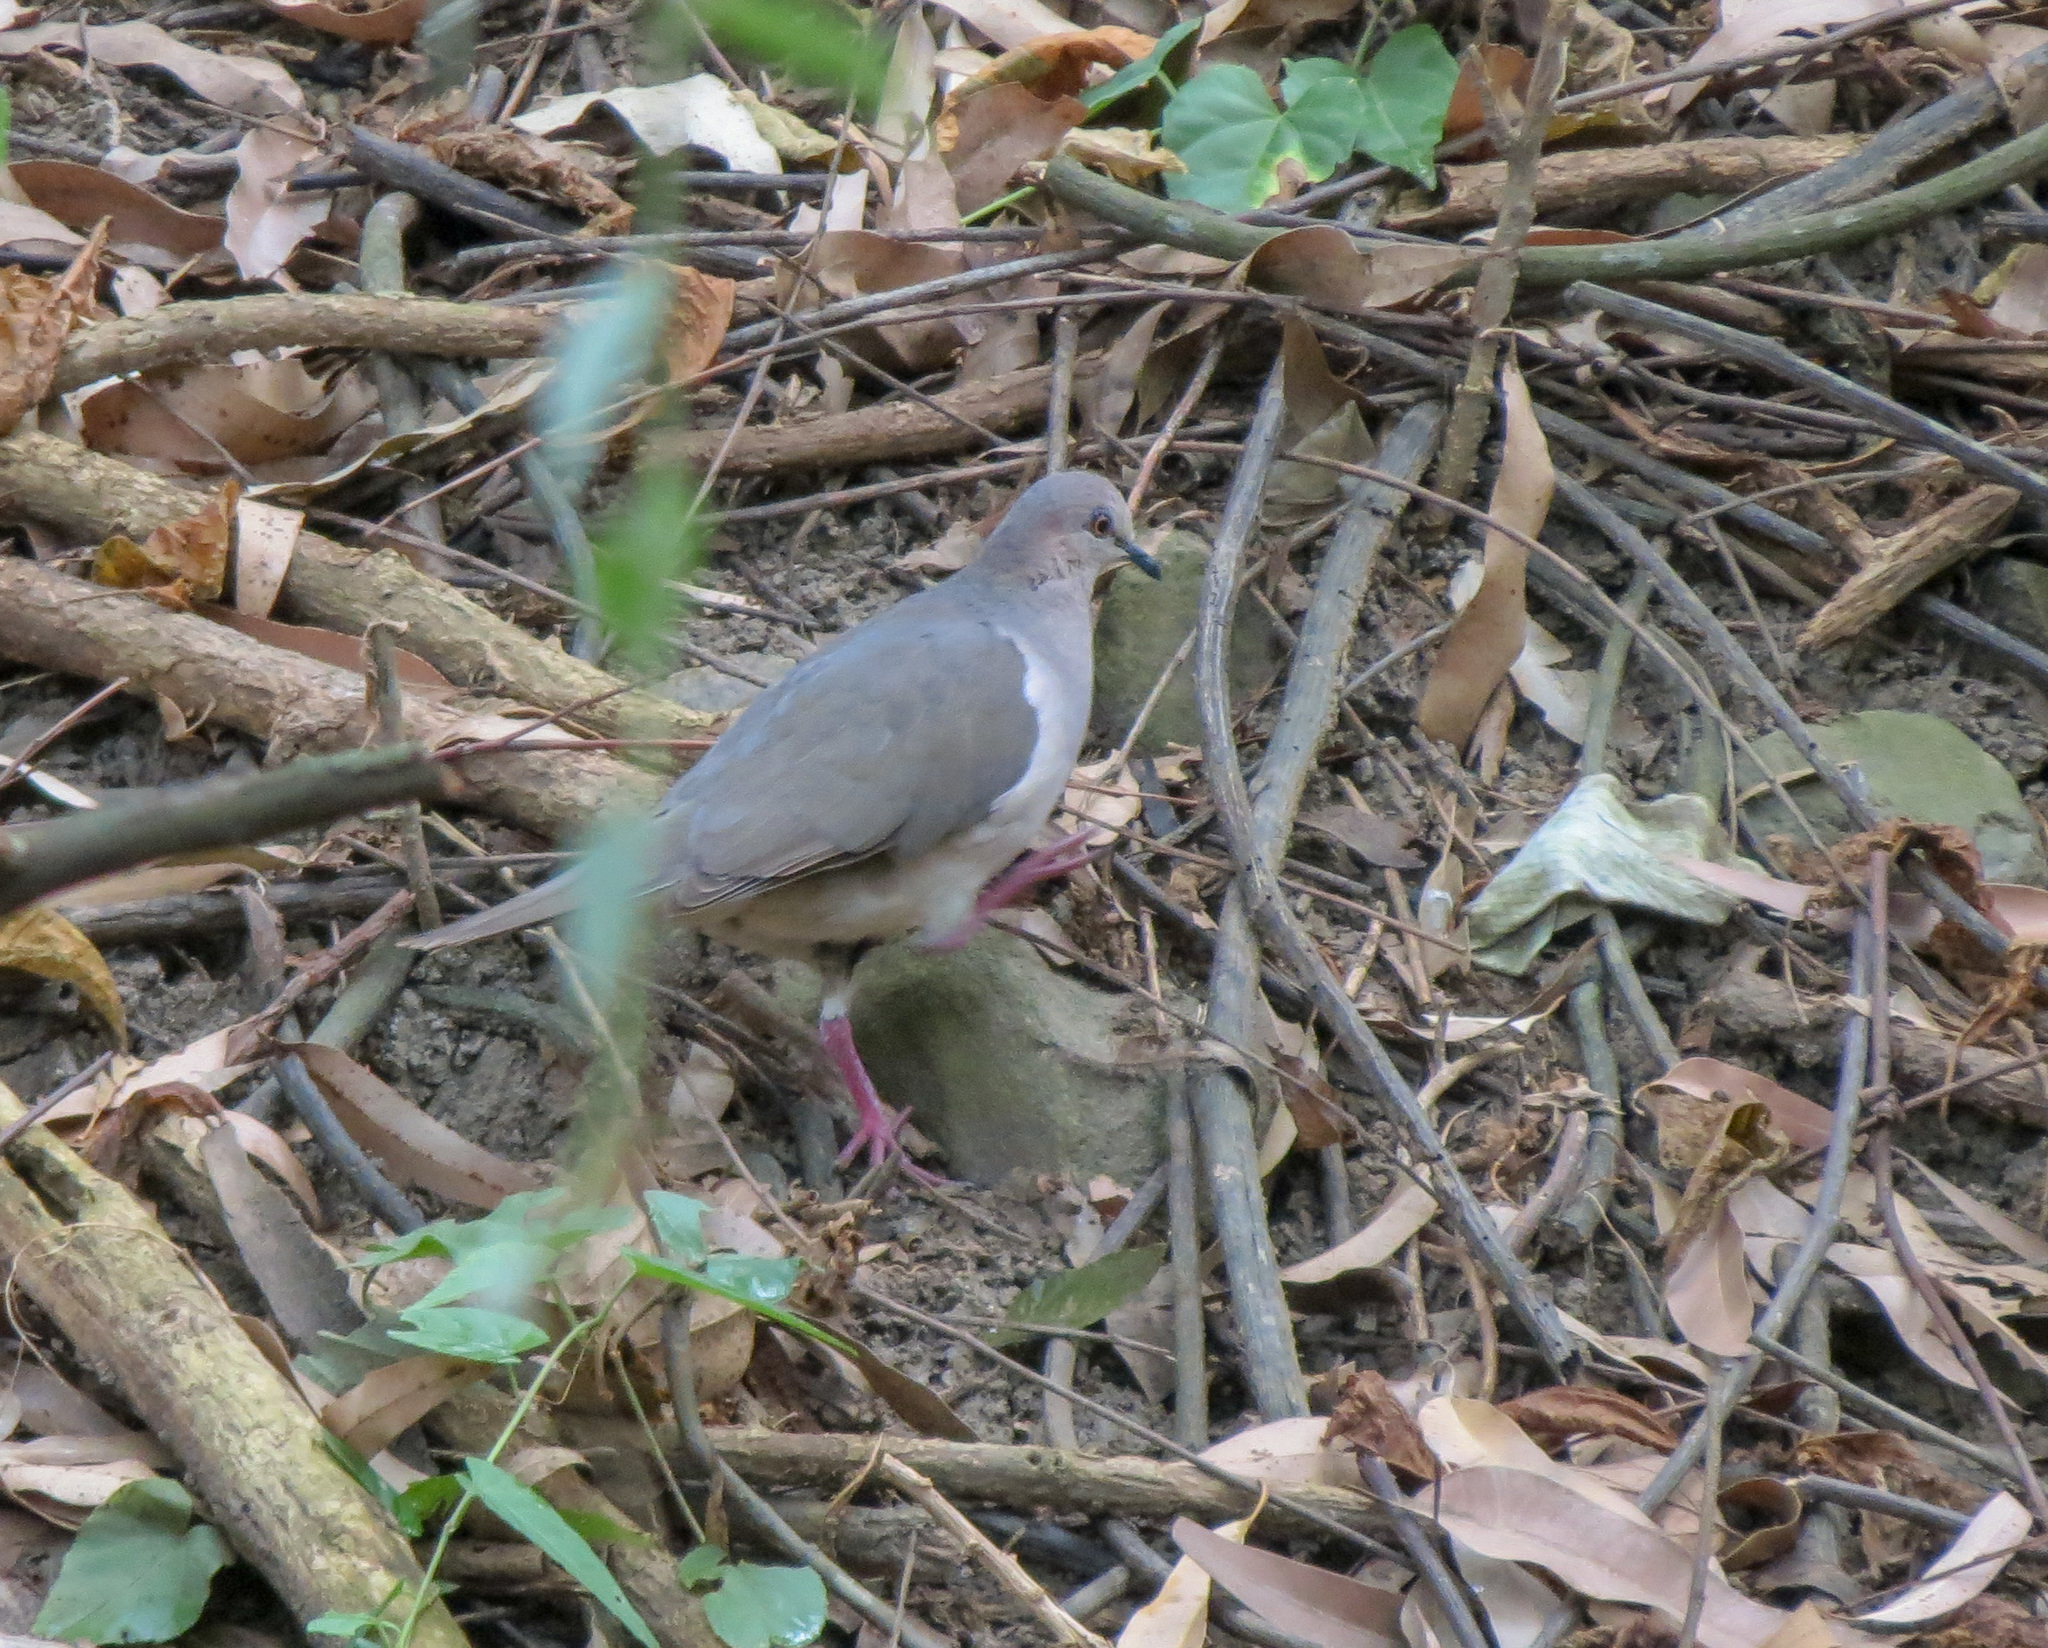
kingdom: Animalia
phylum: Chordata
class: Aves
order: Columbiformes
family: Columbidae
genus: Leptotila
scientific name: Leptotila verreauxi
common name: White-tipped dove
